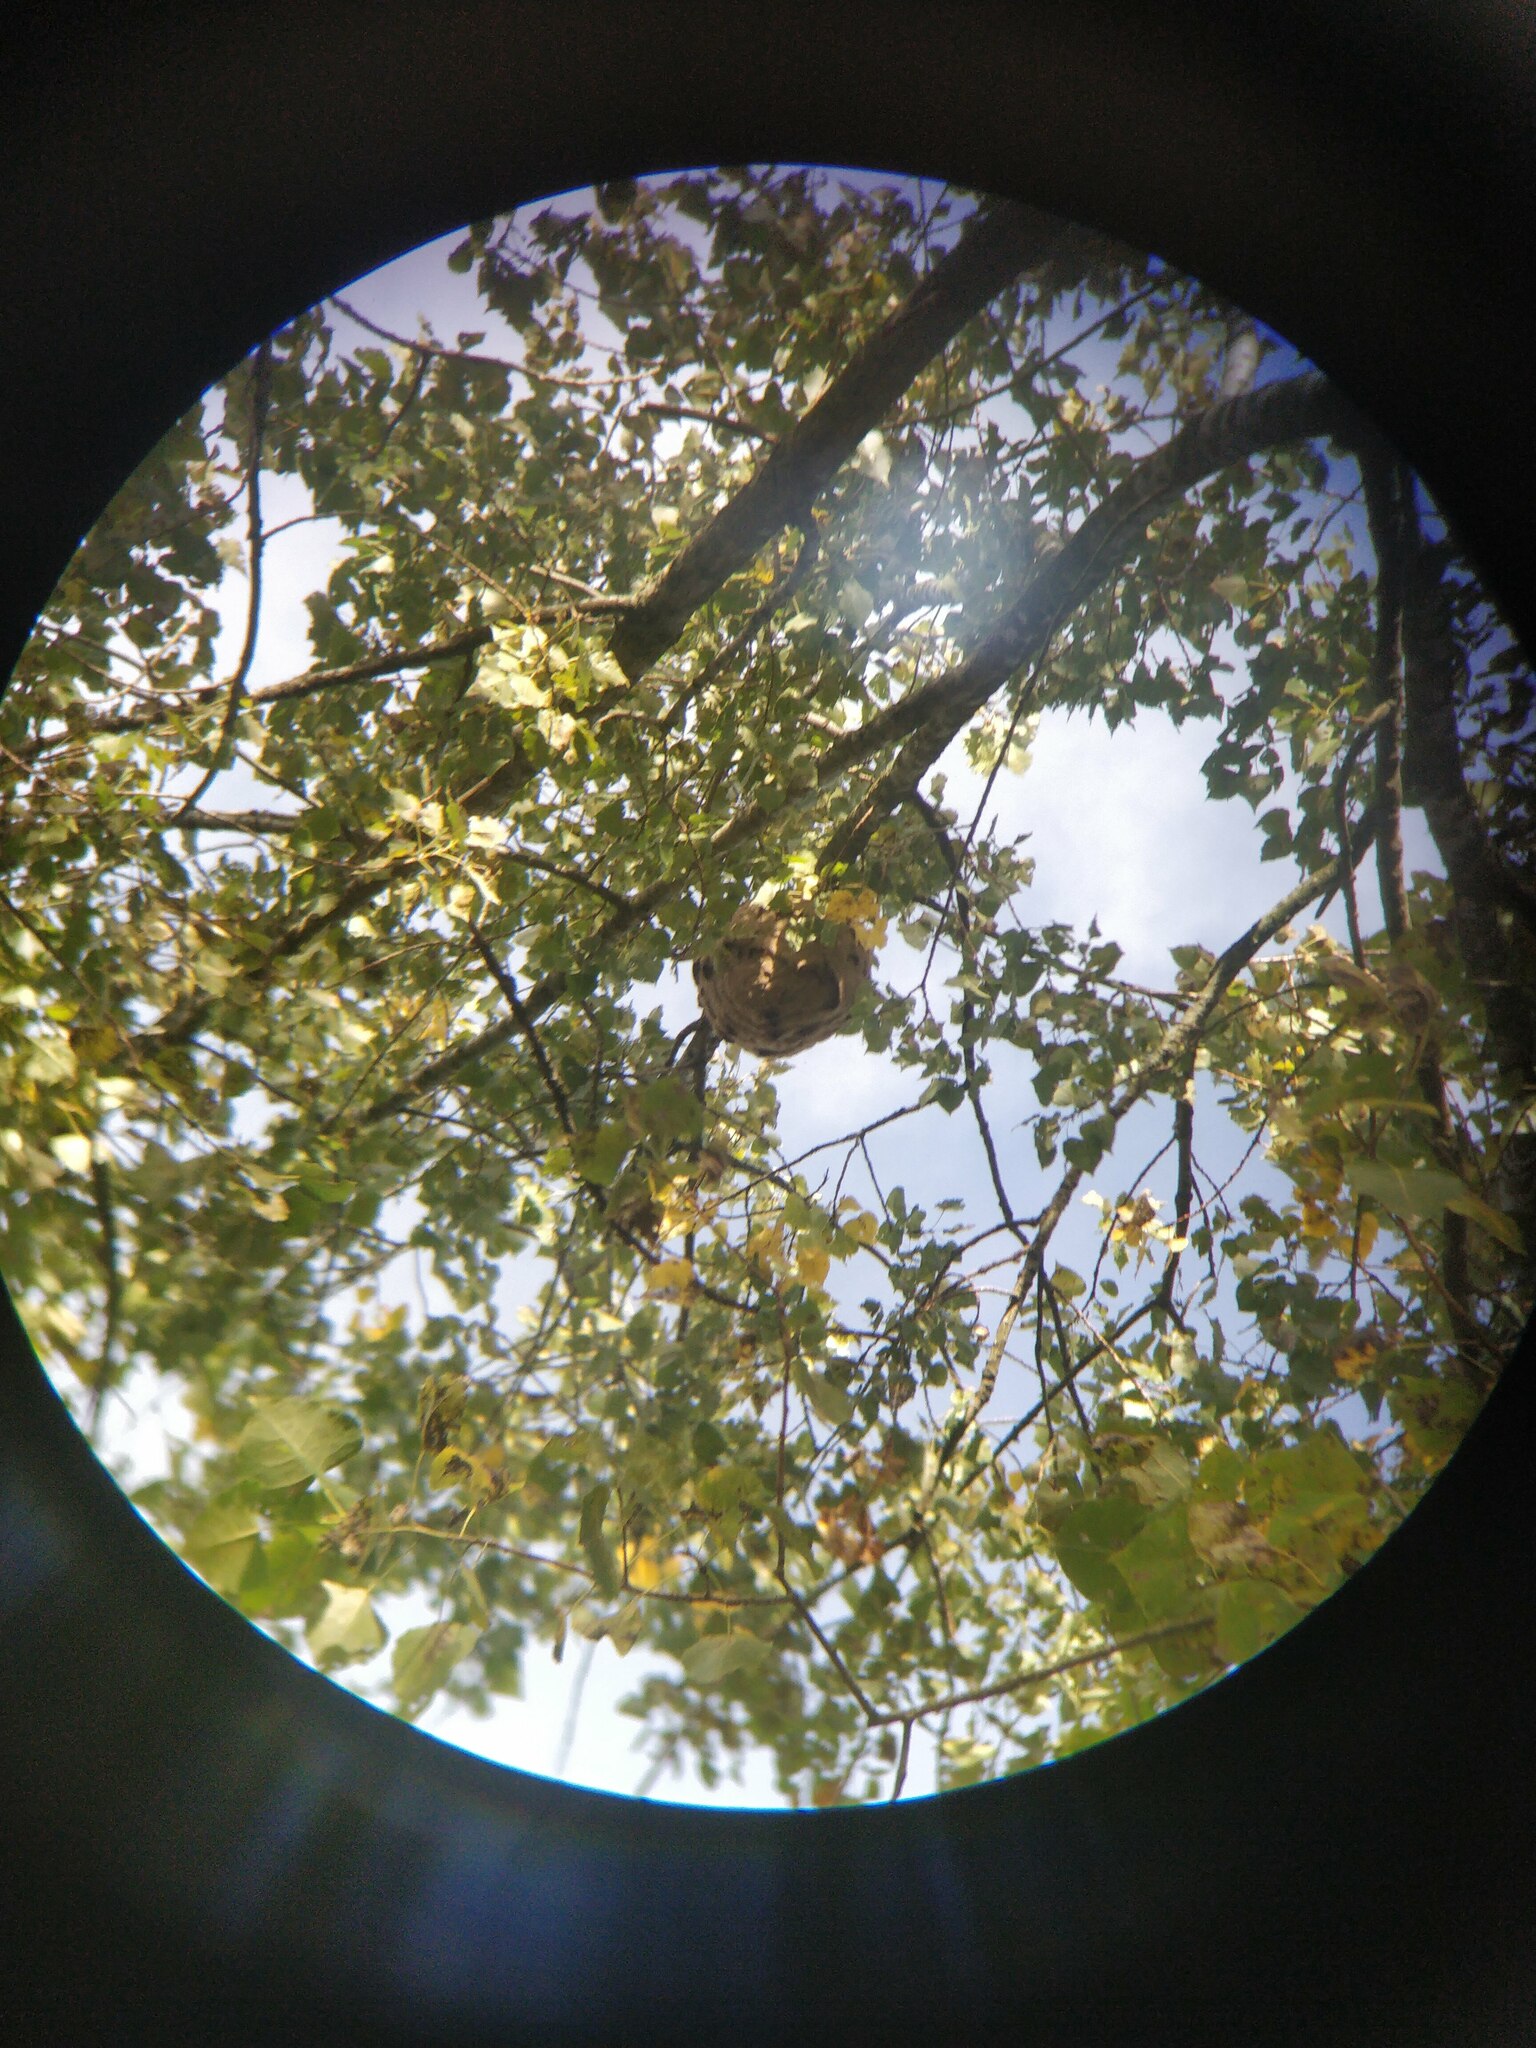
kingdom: Animalia
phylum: Arthropoda
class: Insecta
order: Hymenoptera
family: Vespidae
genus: Vespa
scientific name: Vespa velutina
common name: Asian hornet
